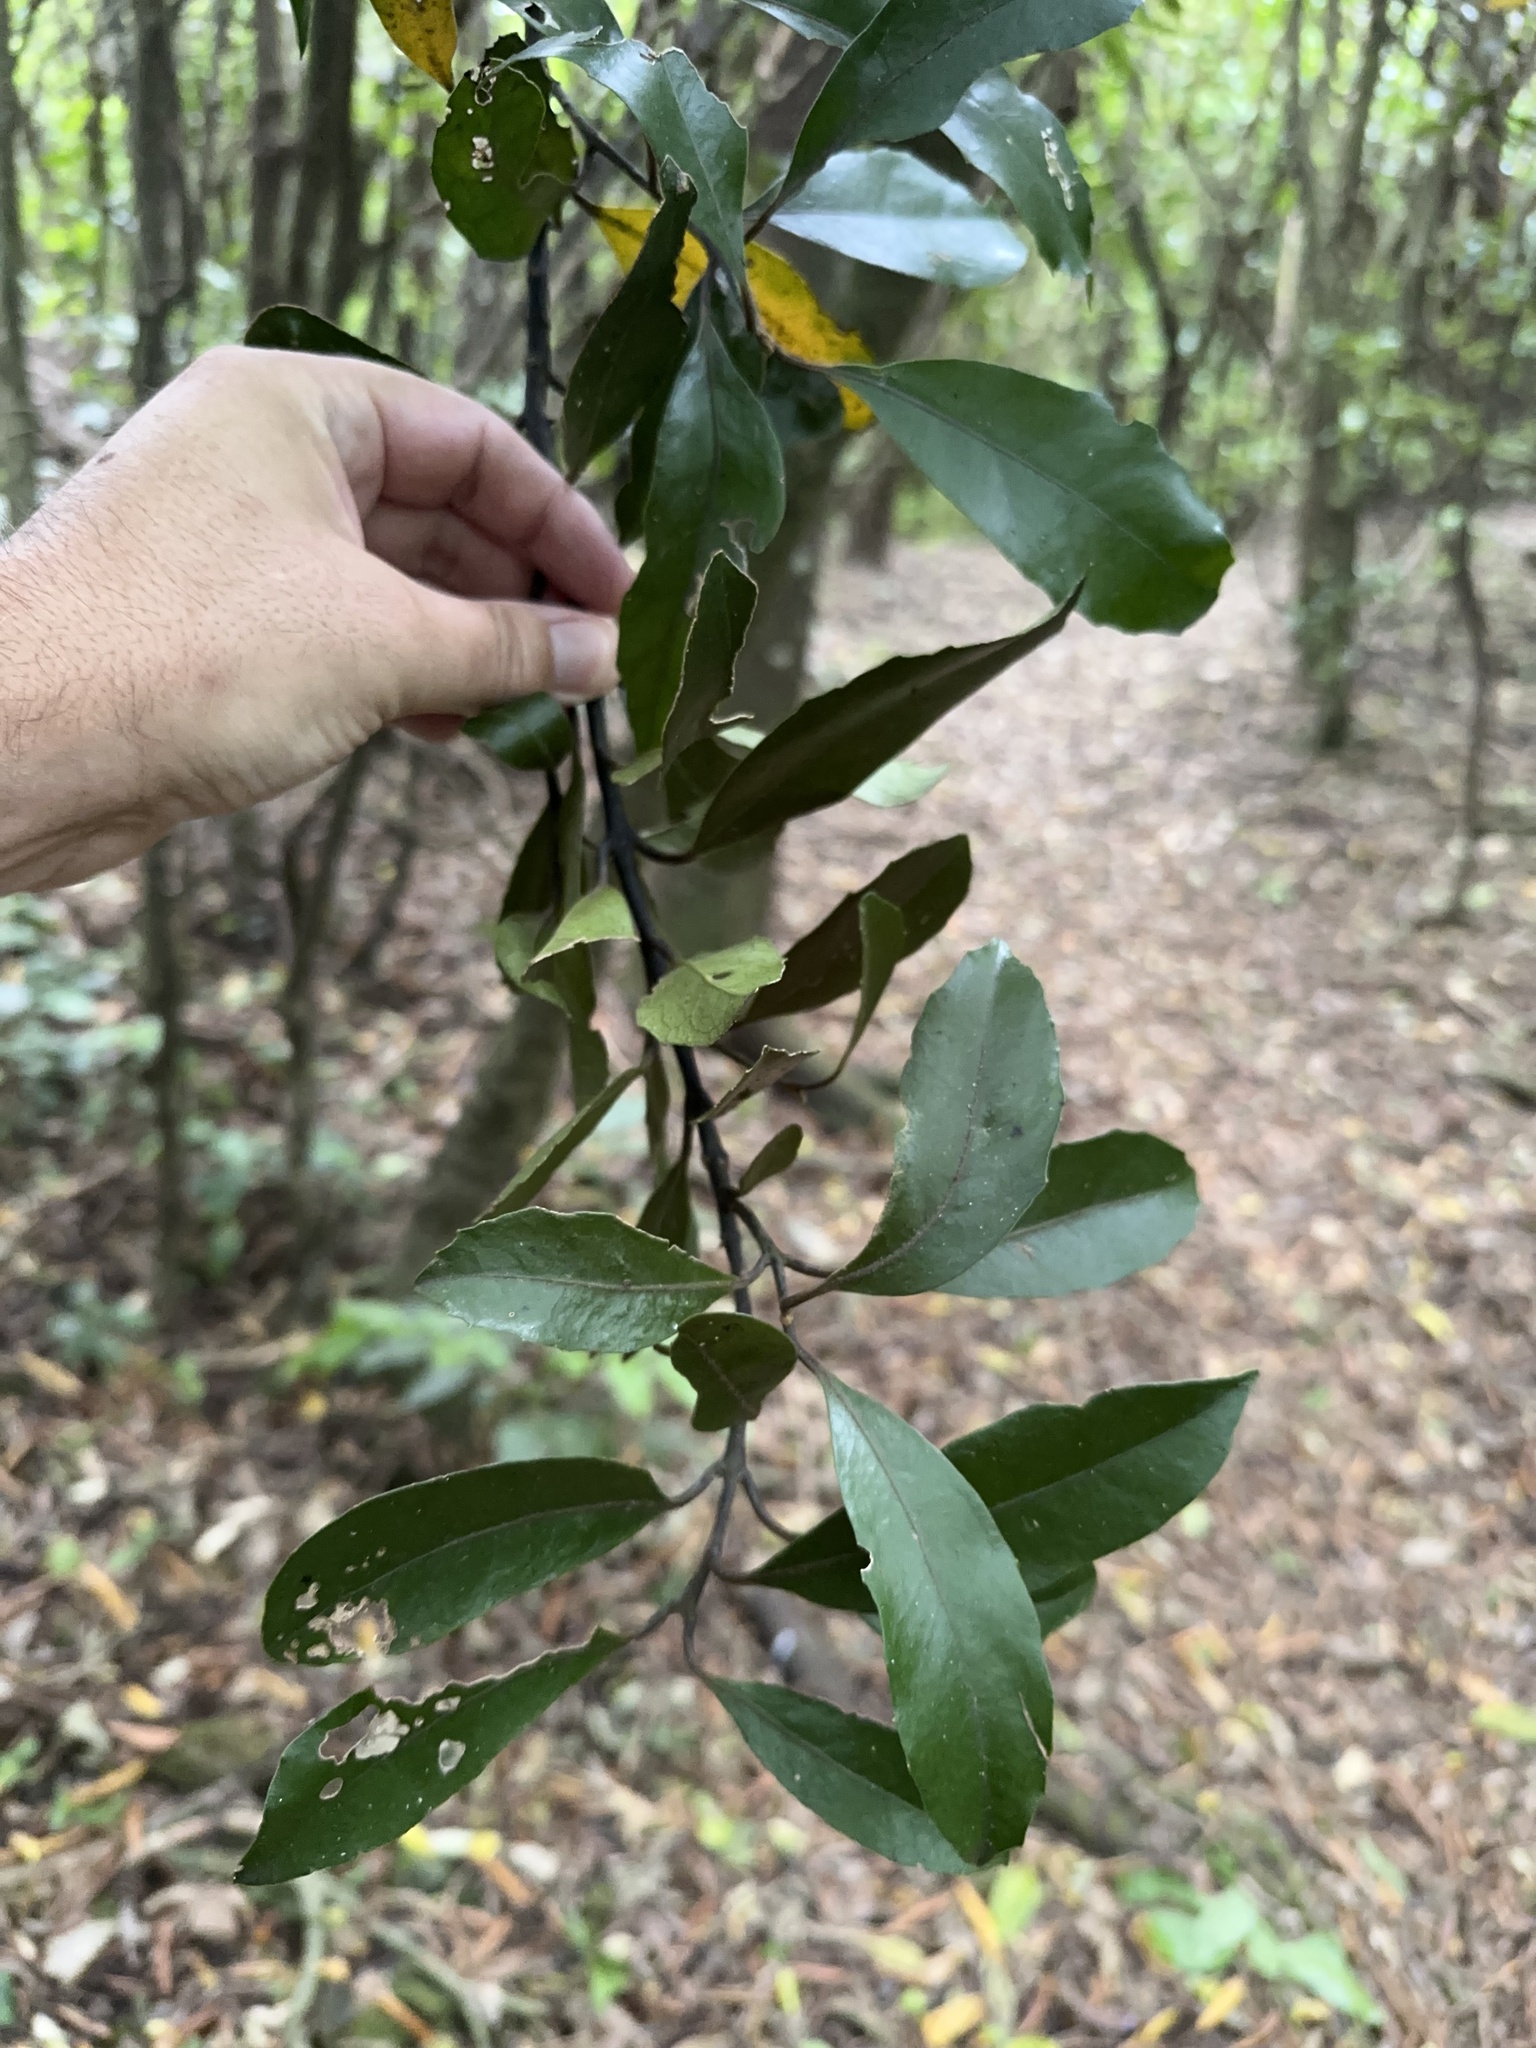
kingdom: Plantae
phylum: Tracheophyta
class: Magnoliopsida
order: Laurales
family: Monimiaceae
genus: Hedycarya
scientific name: Hedycarya arborea
